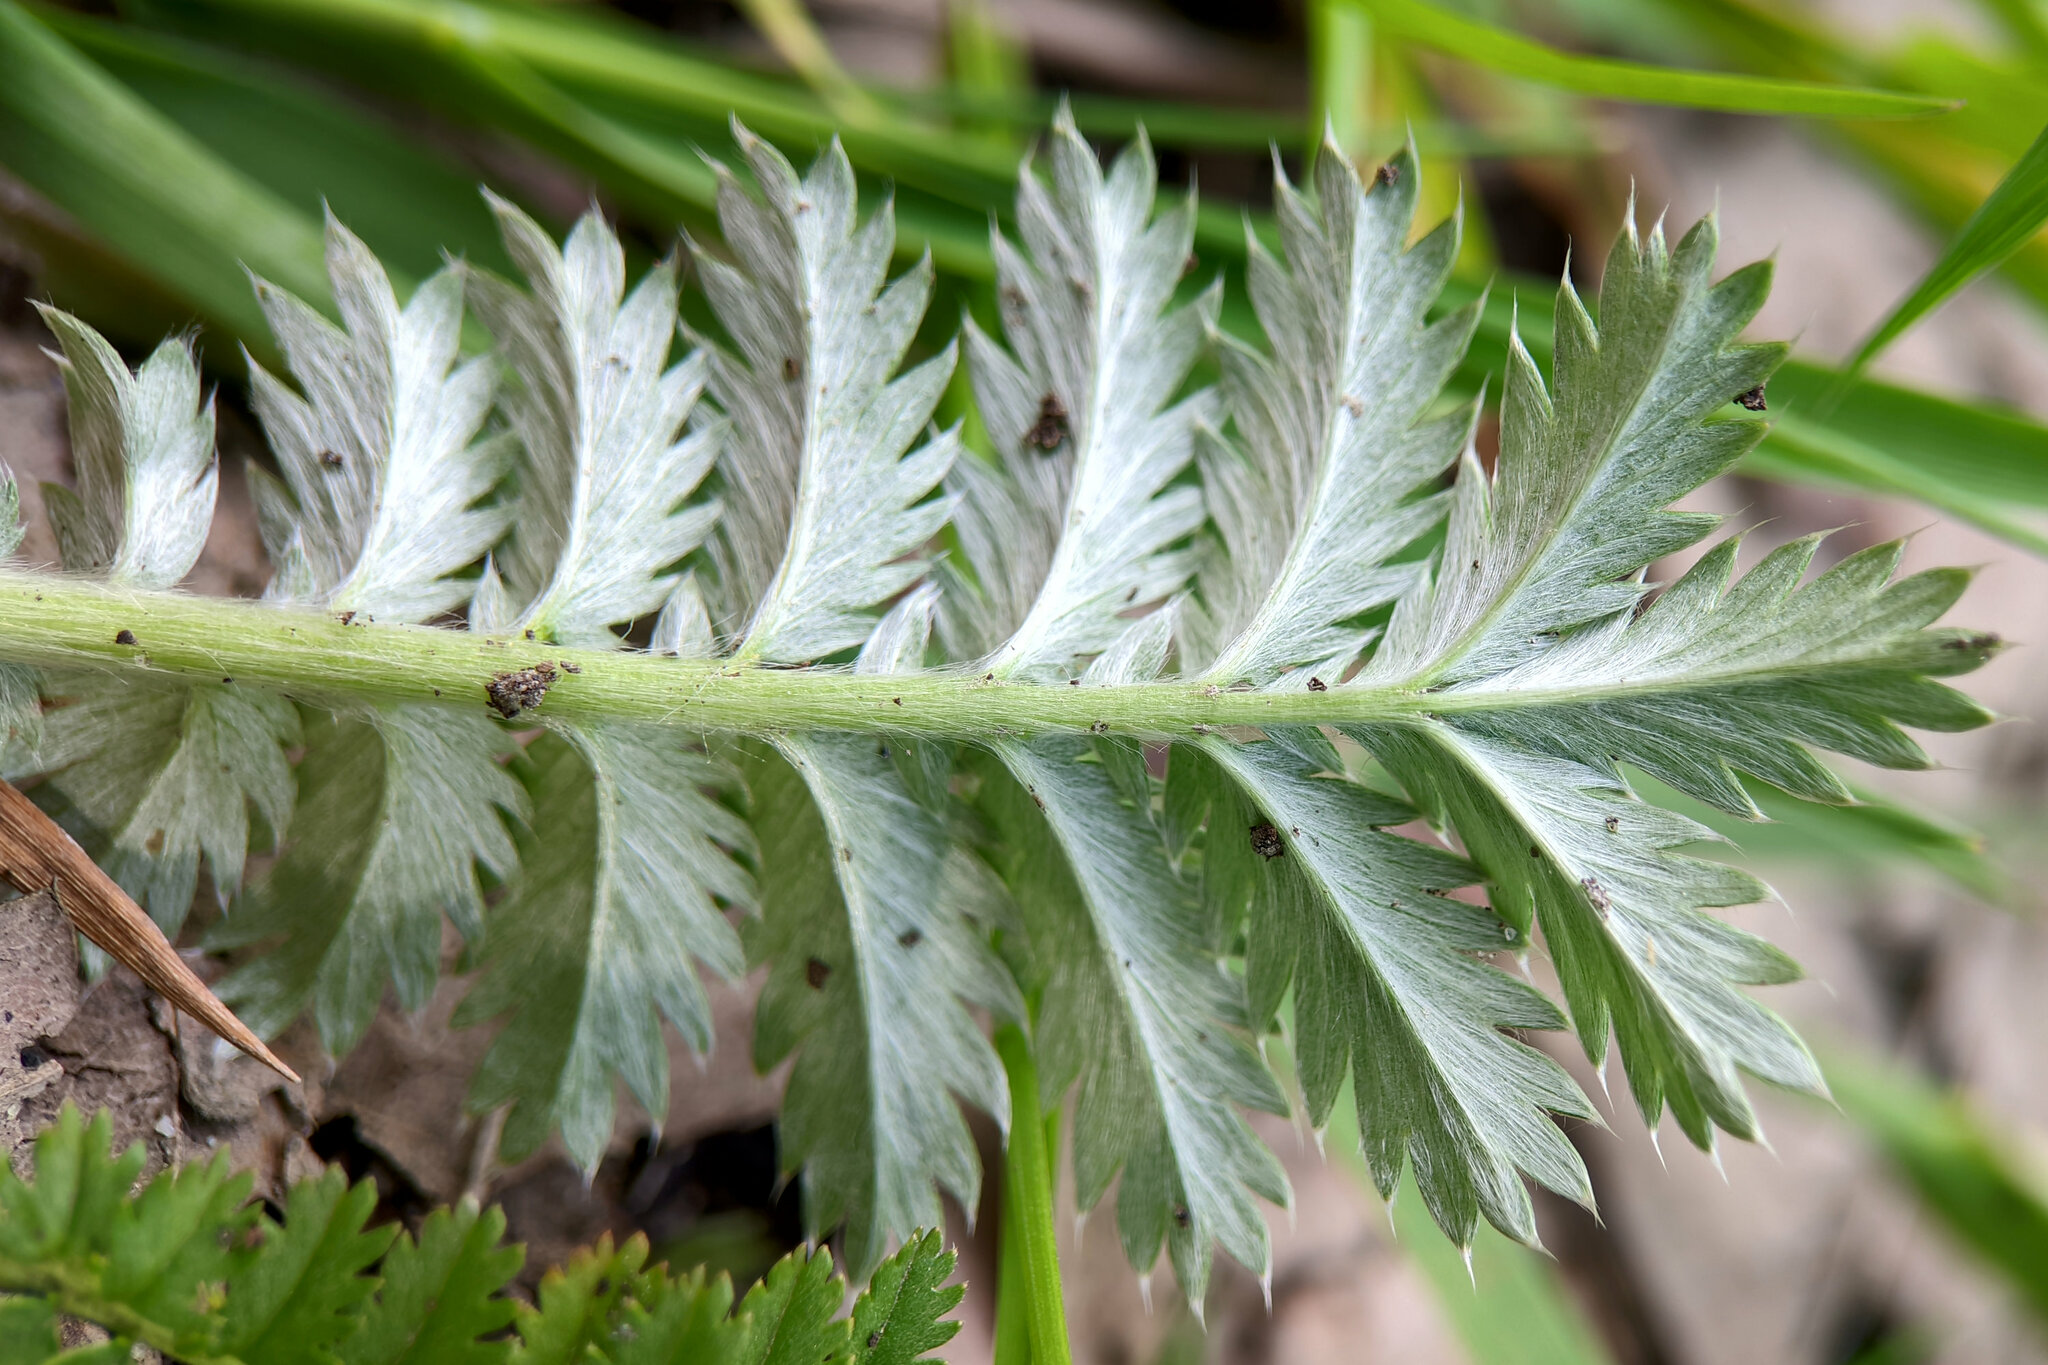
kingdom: Plantae
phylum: Tracheophyta
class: Magnoliopsida
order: Rosales
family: Rosaceae
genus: Argentina
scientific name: Argentina anserina
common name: Common silverweed
